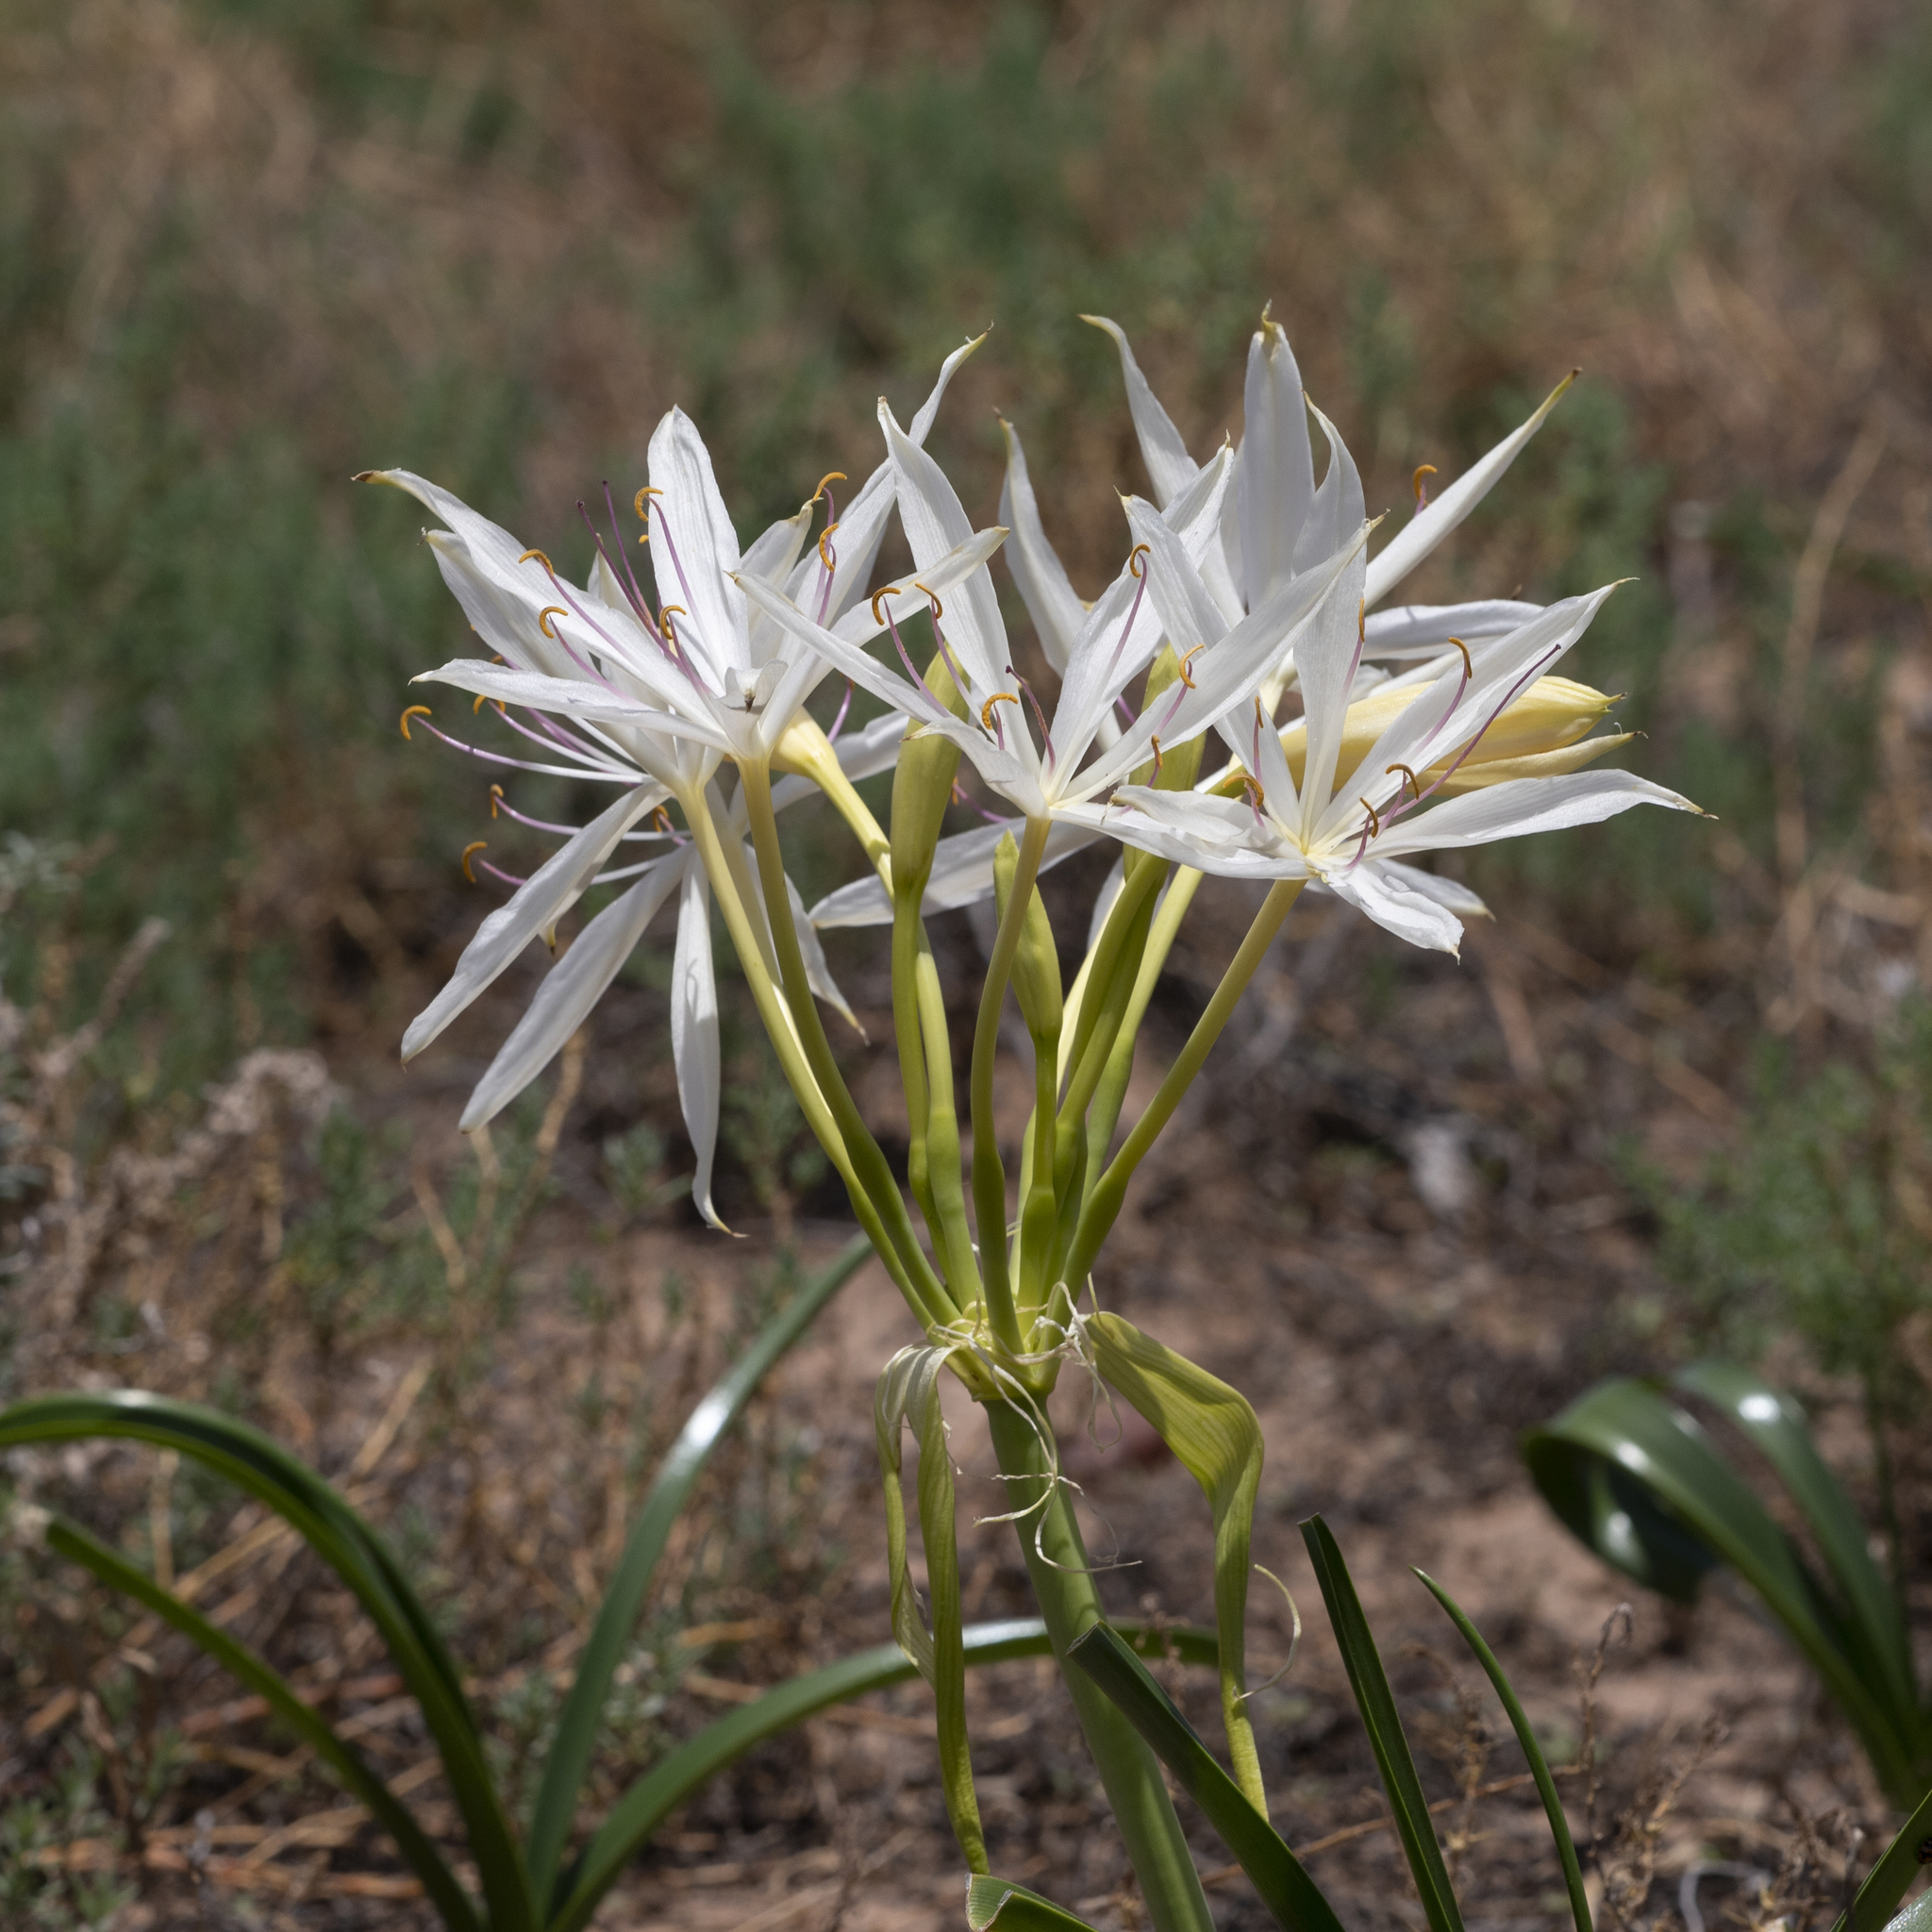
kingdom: Plantae
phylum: Tracheophyta
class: Liliopsida
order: Asparagales
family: Amaryllidaceae
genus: Crinum
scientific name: Crinum flaccidum
